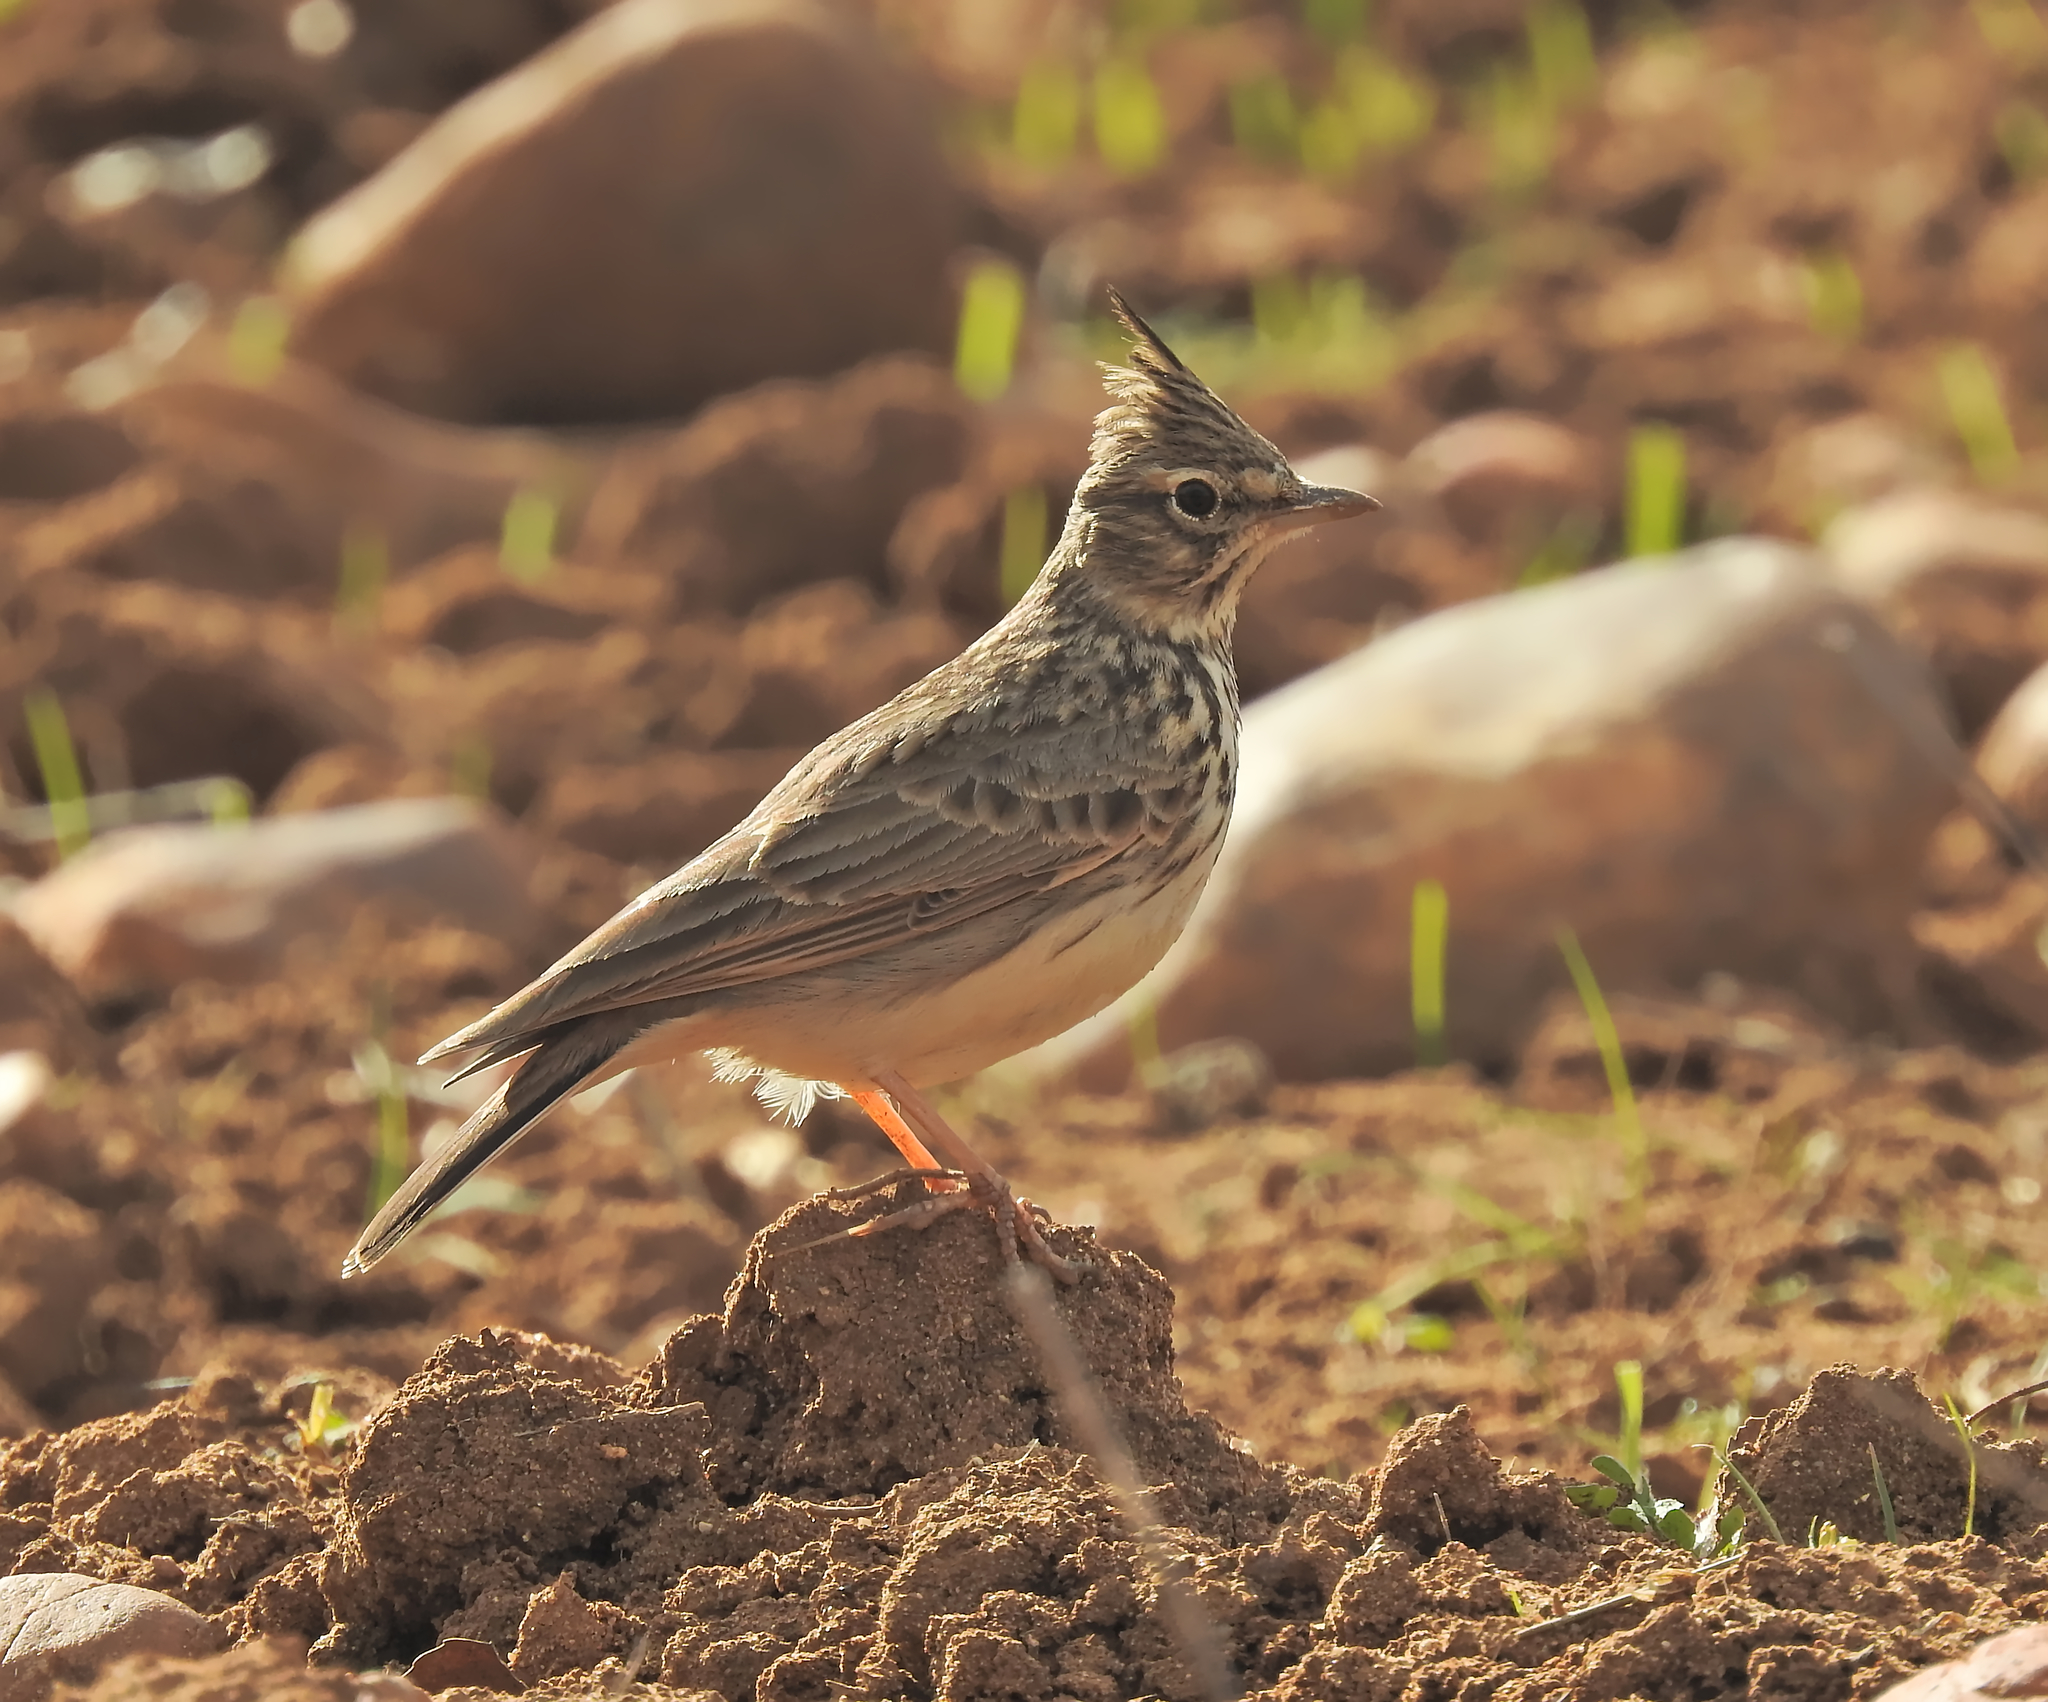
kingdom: Animalia
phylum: Chordata
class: Aves
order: Passeriformes
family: Alaudidae
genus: Galerida
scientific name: Galerida theklae
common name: Thekla lark
